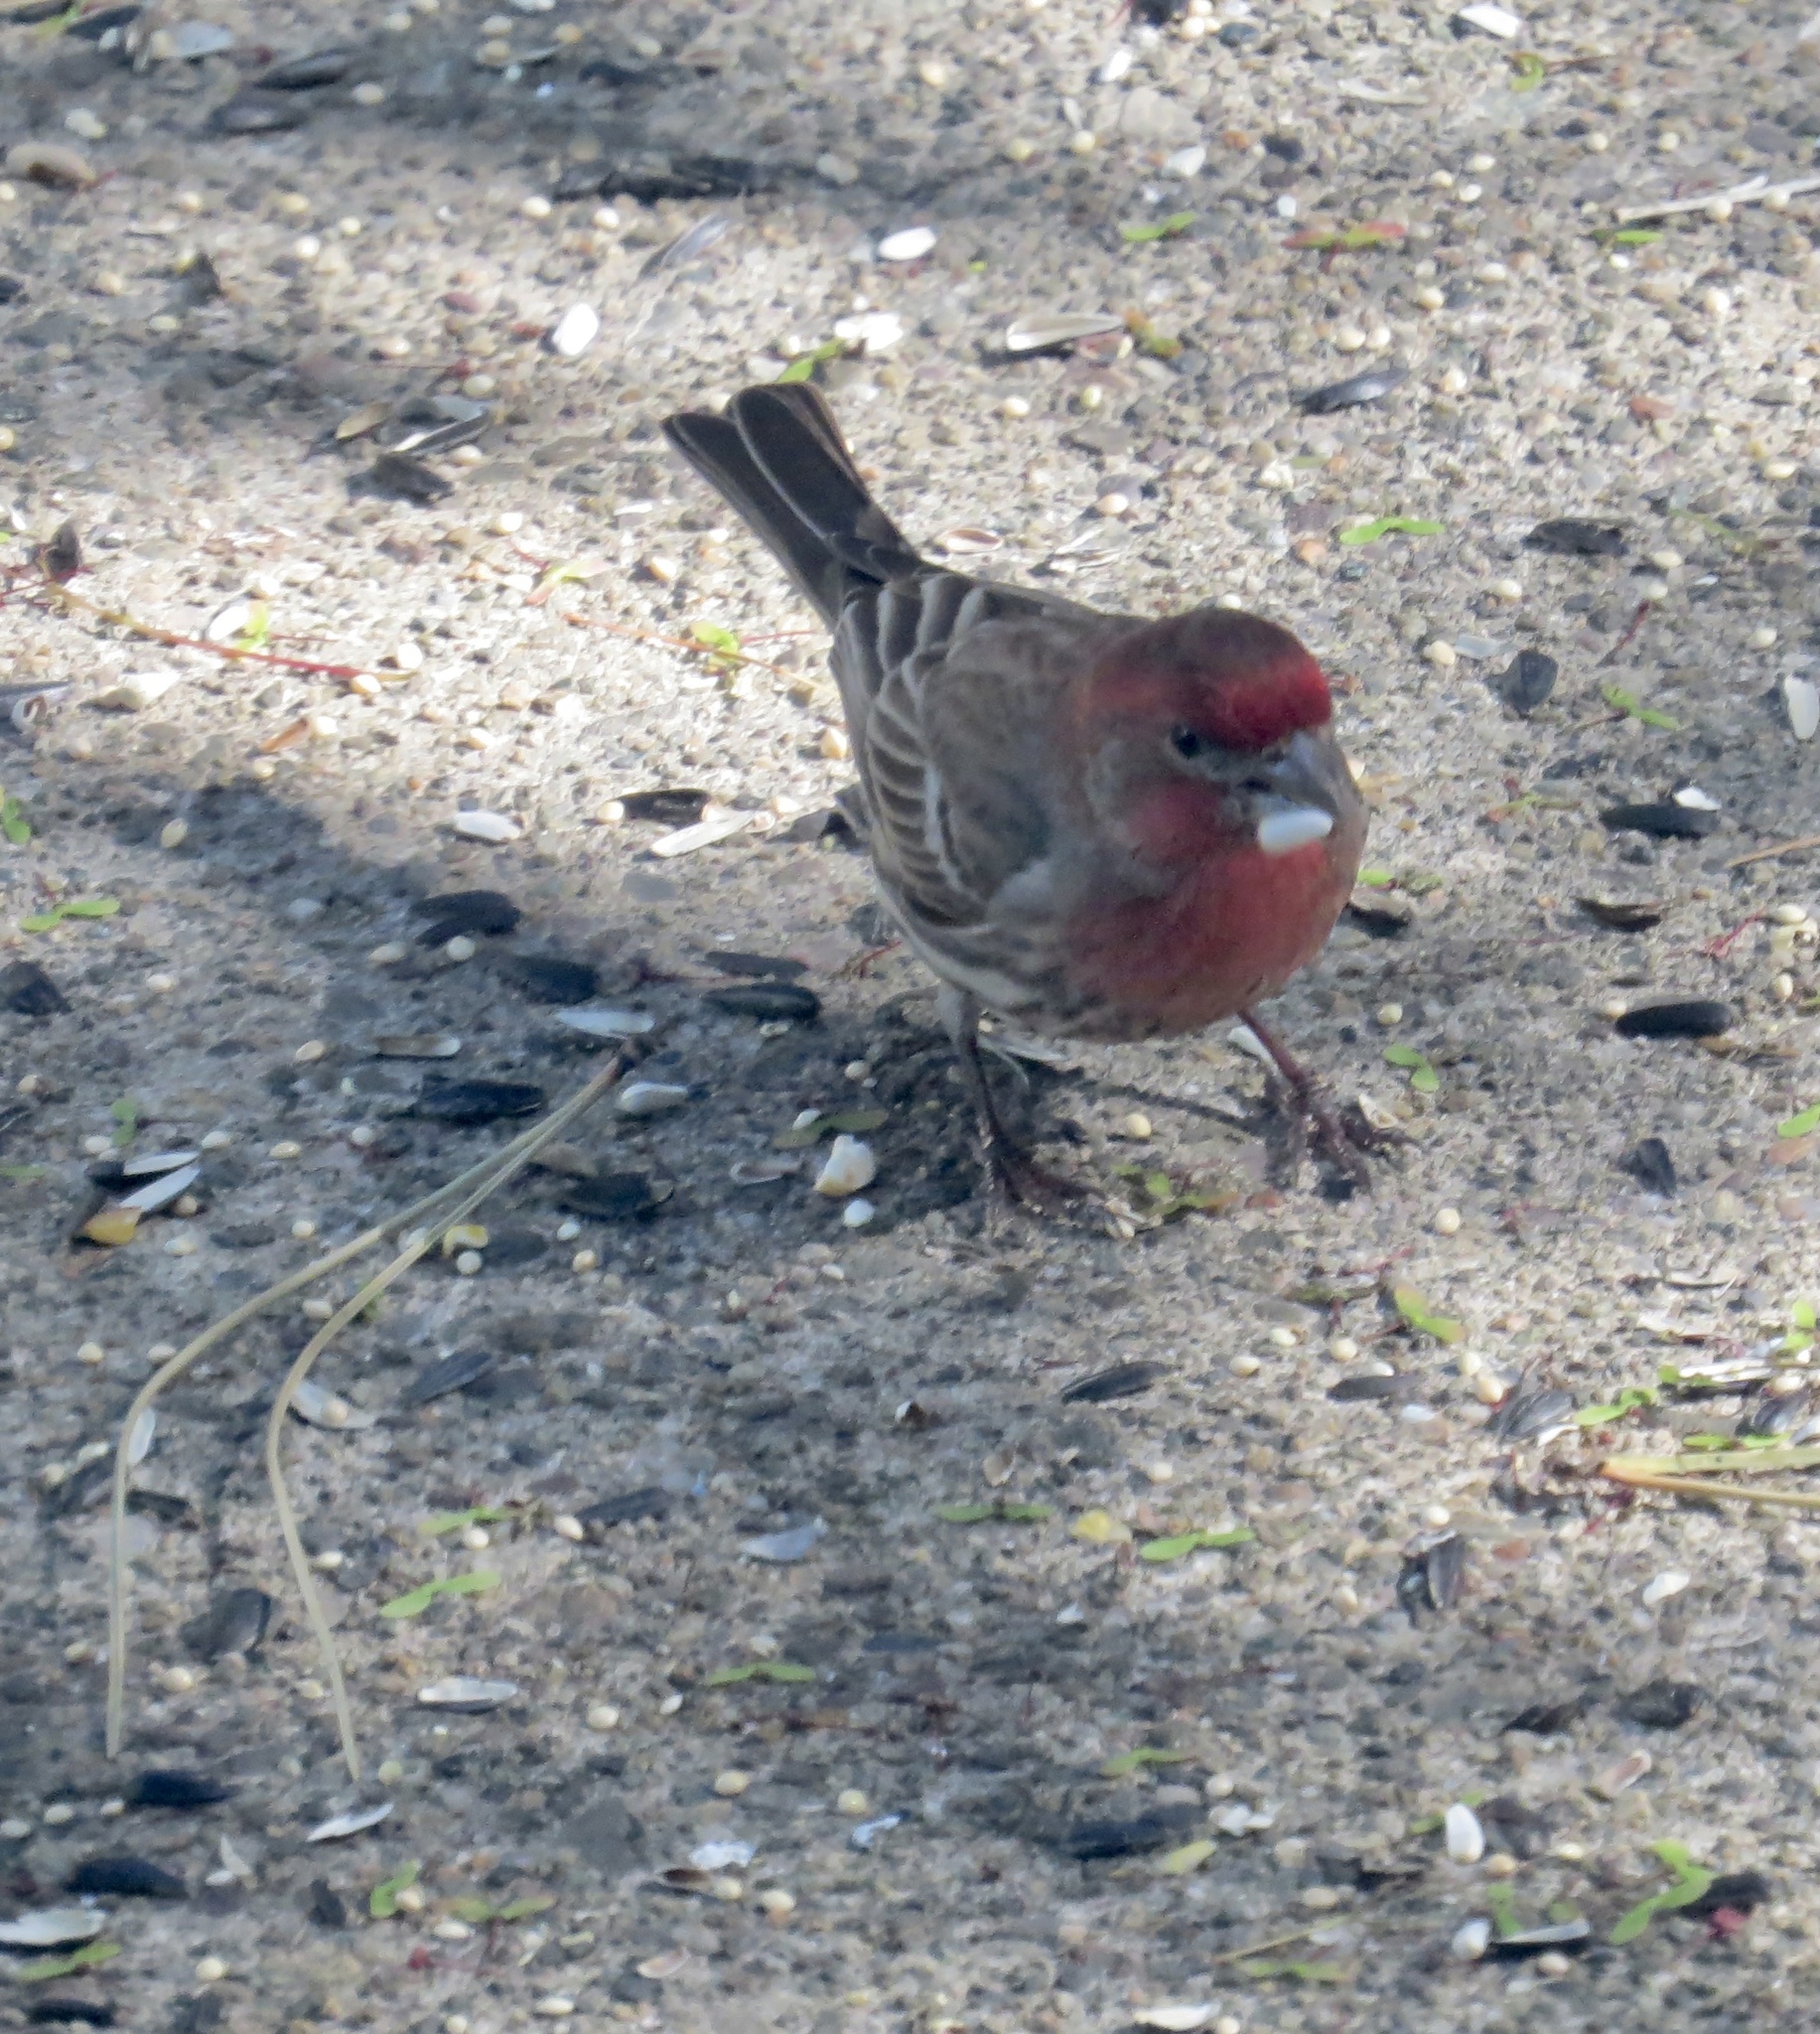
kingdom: Animalia
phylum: Chordata
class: Aves
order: Passeriformes
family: Fringillidae
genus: Haemorhous
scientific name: Haemorhous mexicanus
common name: House finch
